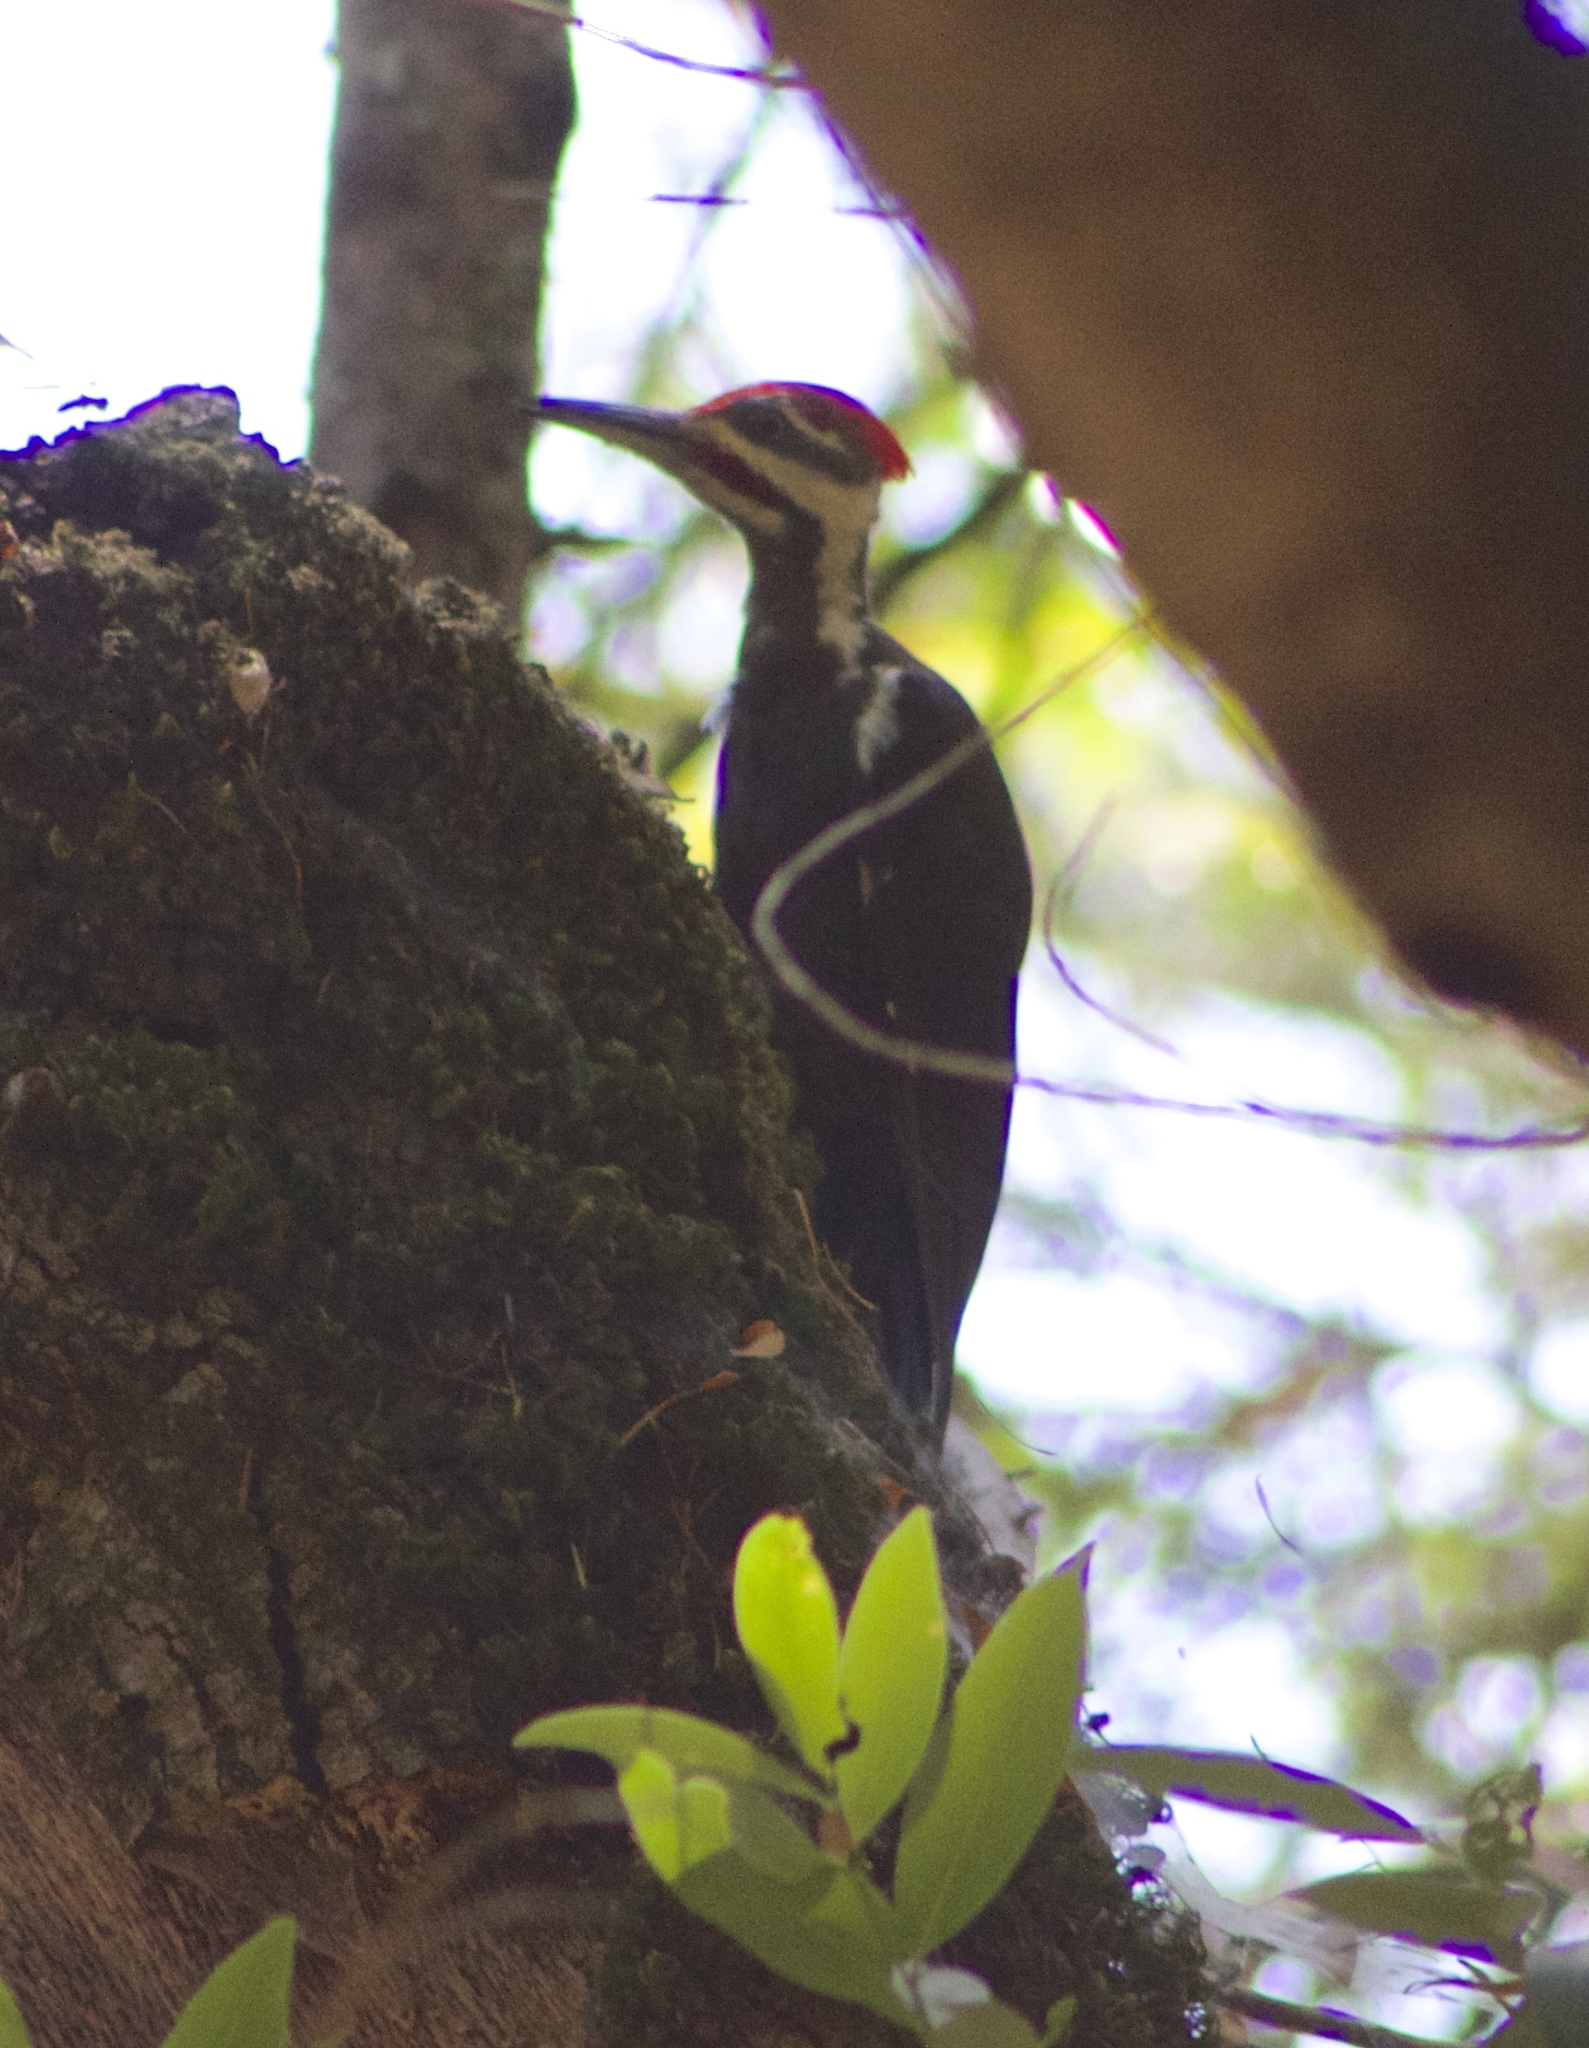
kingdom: Animalia
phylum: Chordata
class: Aves
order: Piciformes
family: Picidae
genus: Dryocopus
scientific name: Dryocopus pileatus
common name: Pileated woodpecker
